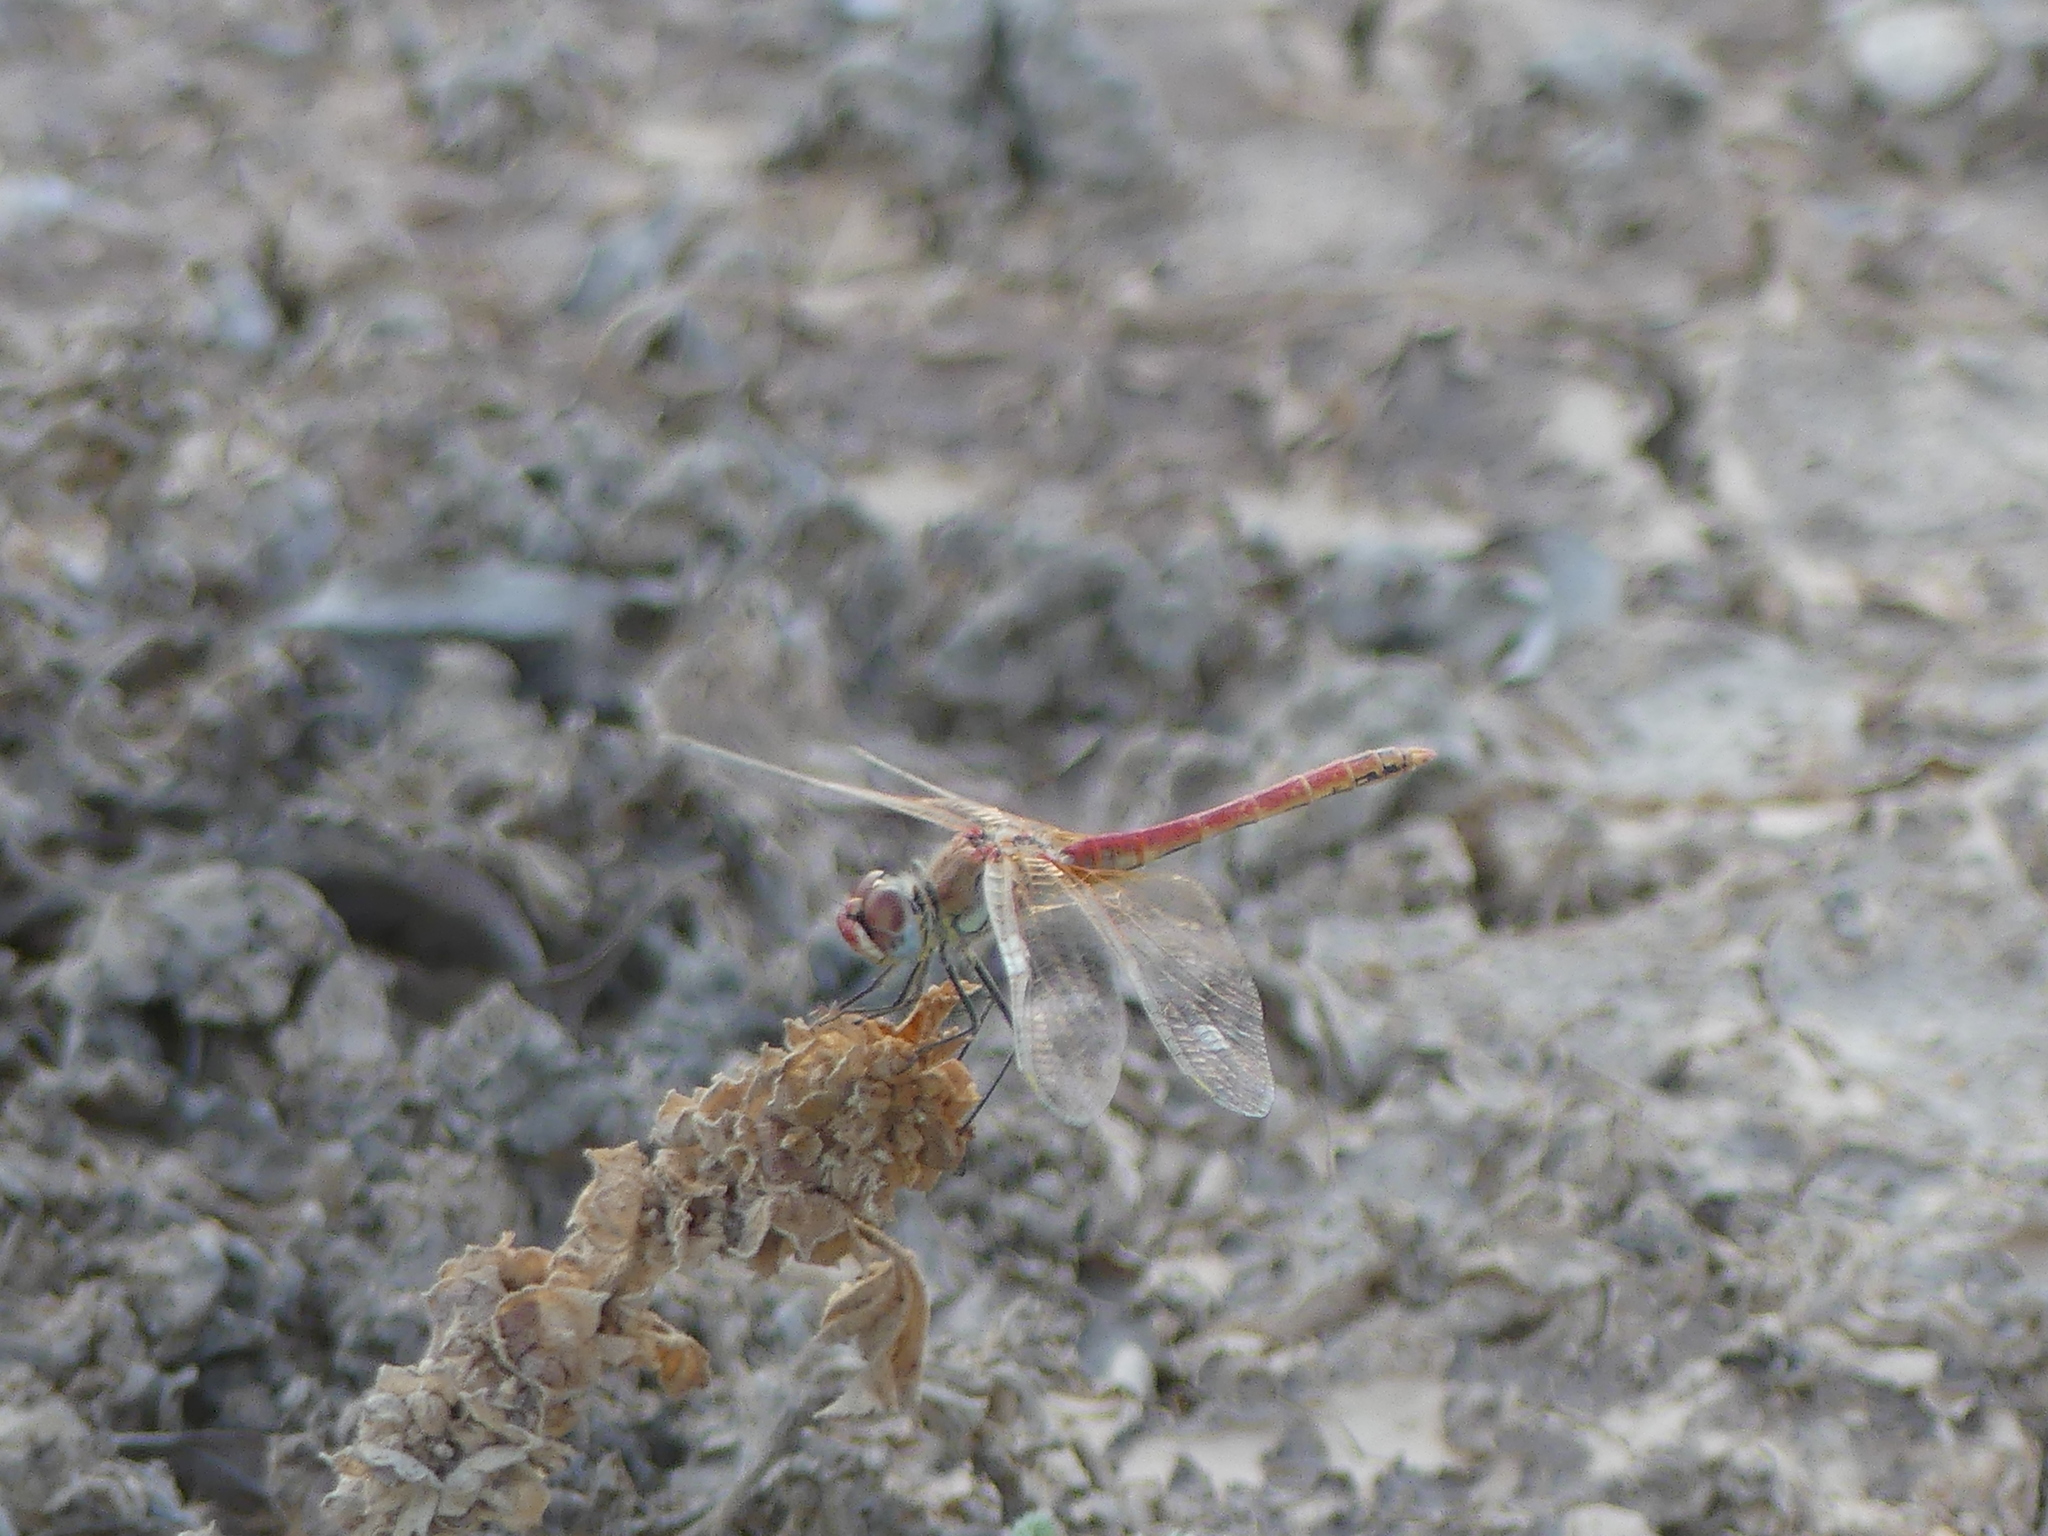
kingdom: Animalia
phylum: Arthropoda
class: Insecta
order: Odonata
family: Libellulidae
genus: Sympetrum
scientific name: Sympetrum fonscolombii
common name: Red-veined darter
